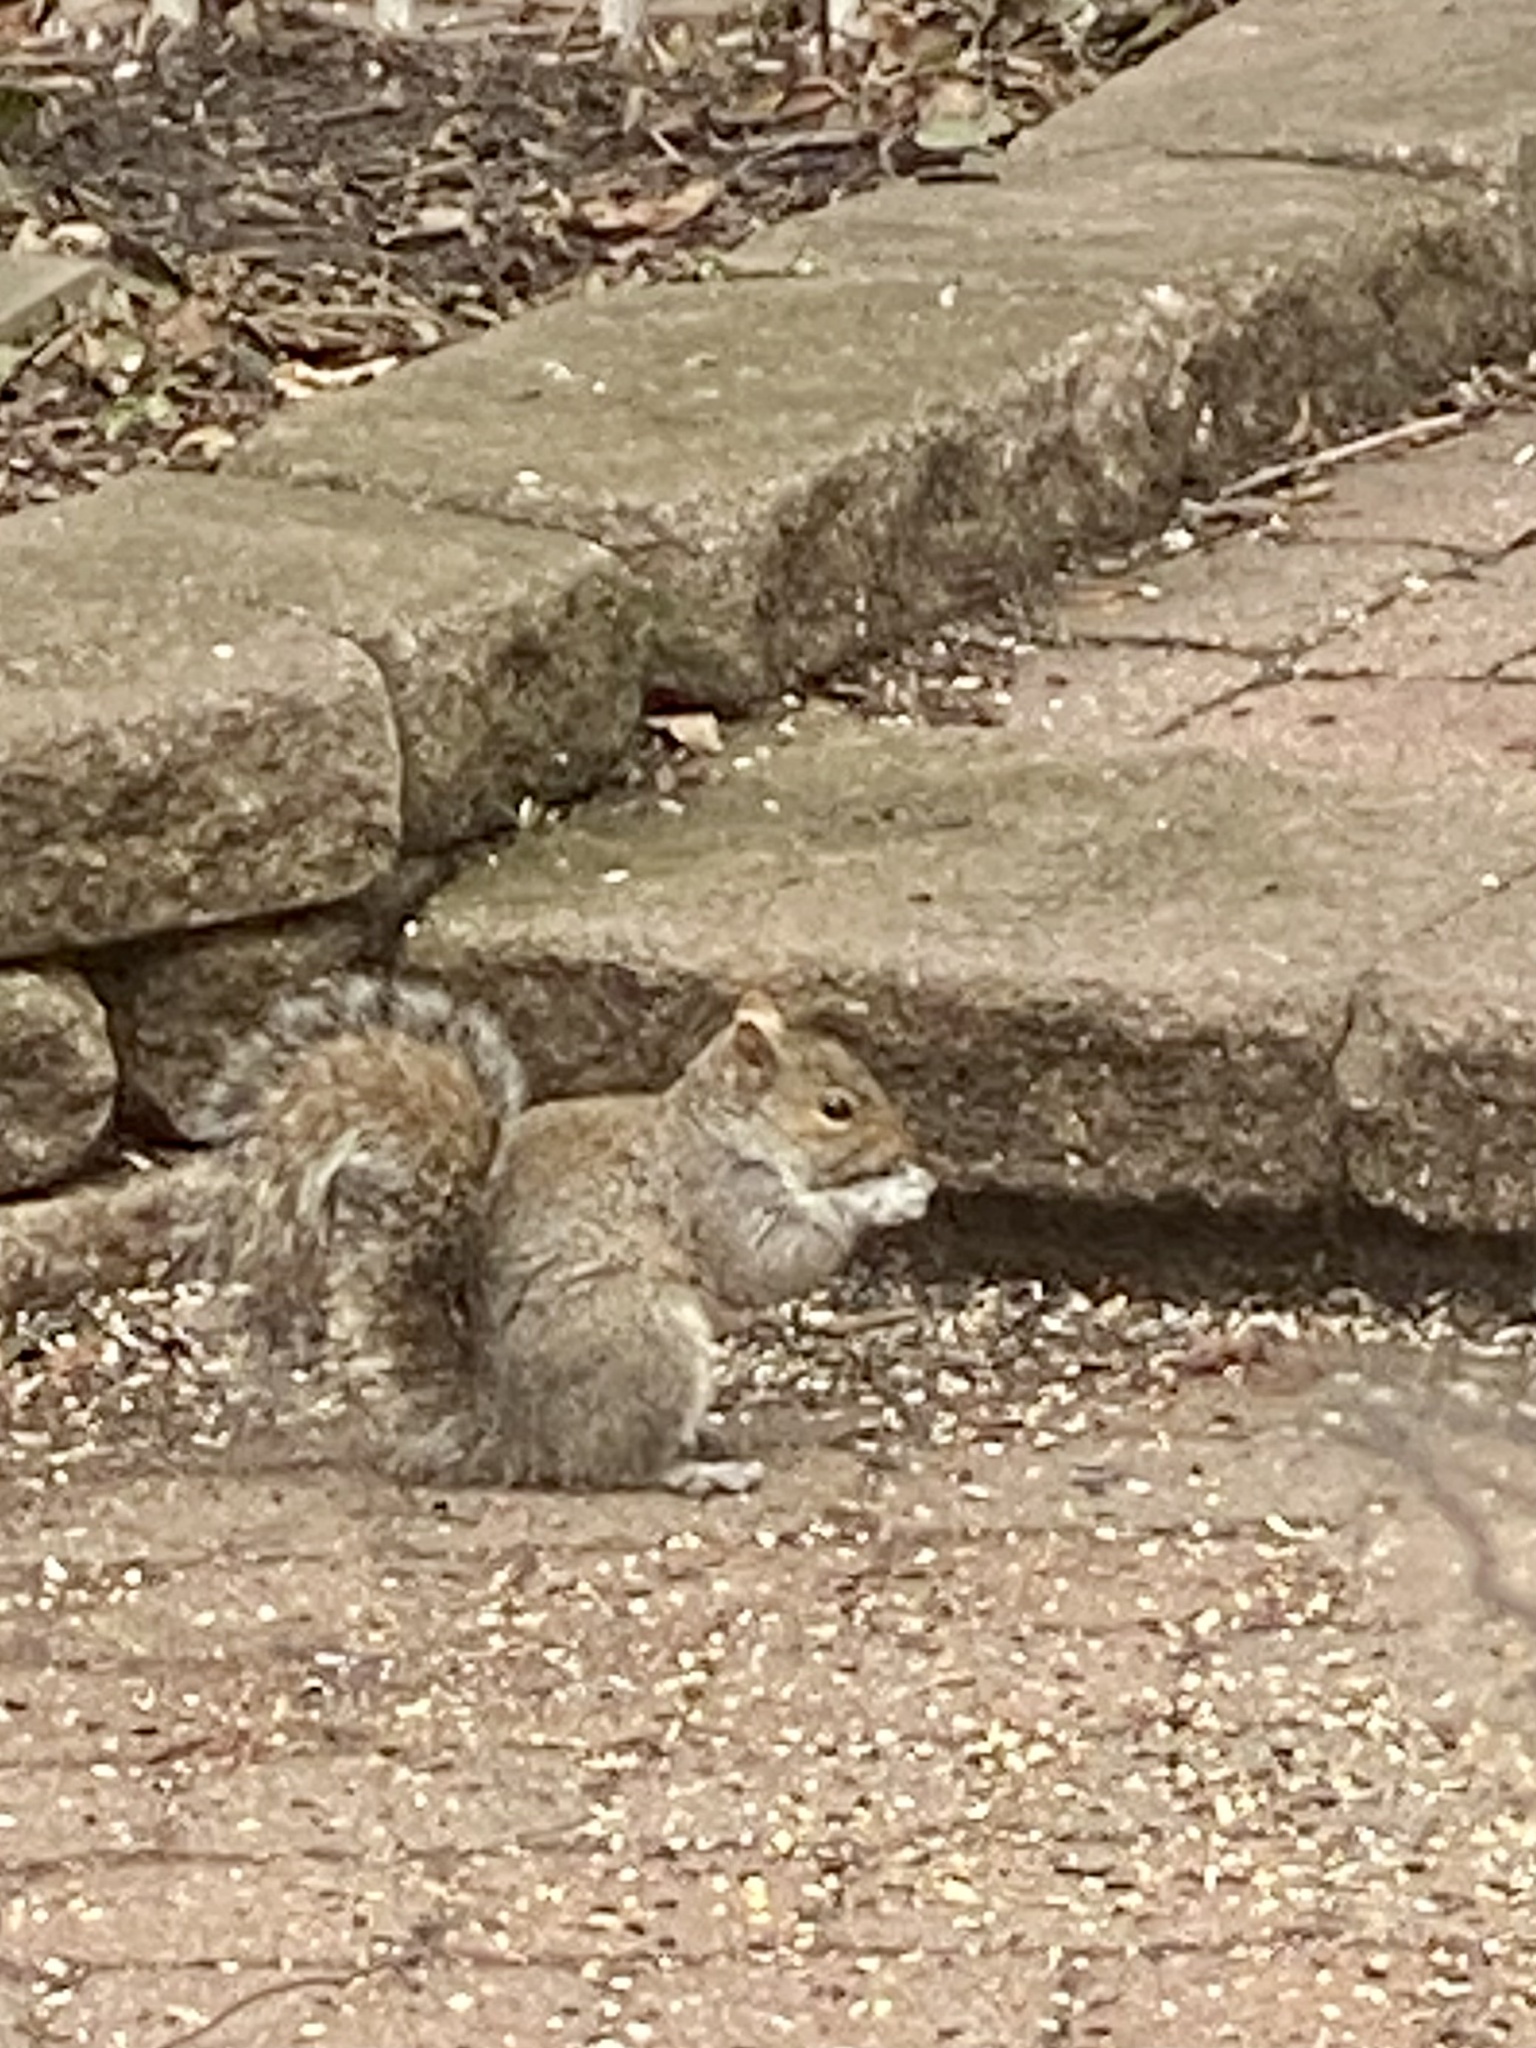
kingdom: Animalia
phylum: Chordata
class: Mammalia
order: Rodentia
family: Sciuridae
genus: Sciurus
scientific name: Sciurus carolinensis
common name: Eastern gray squirrel
